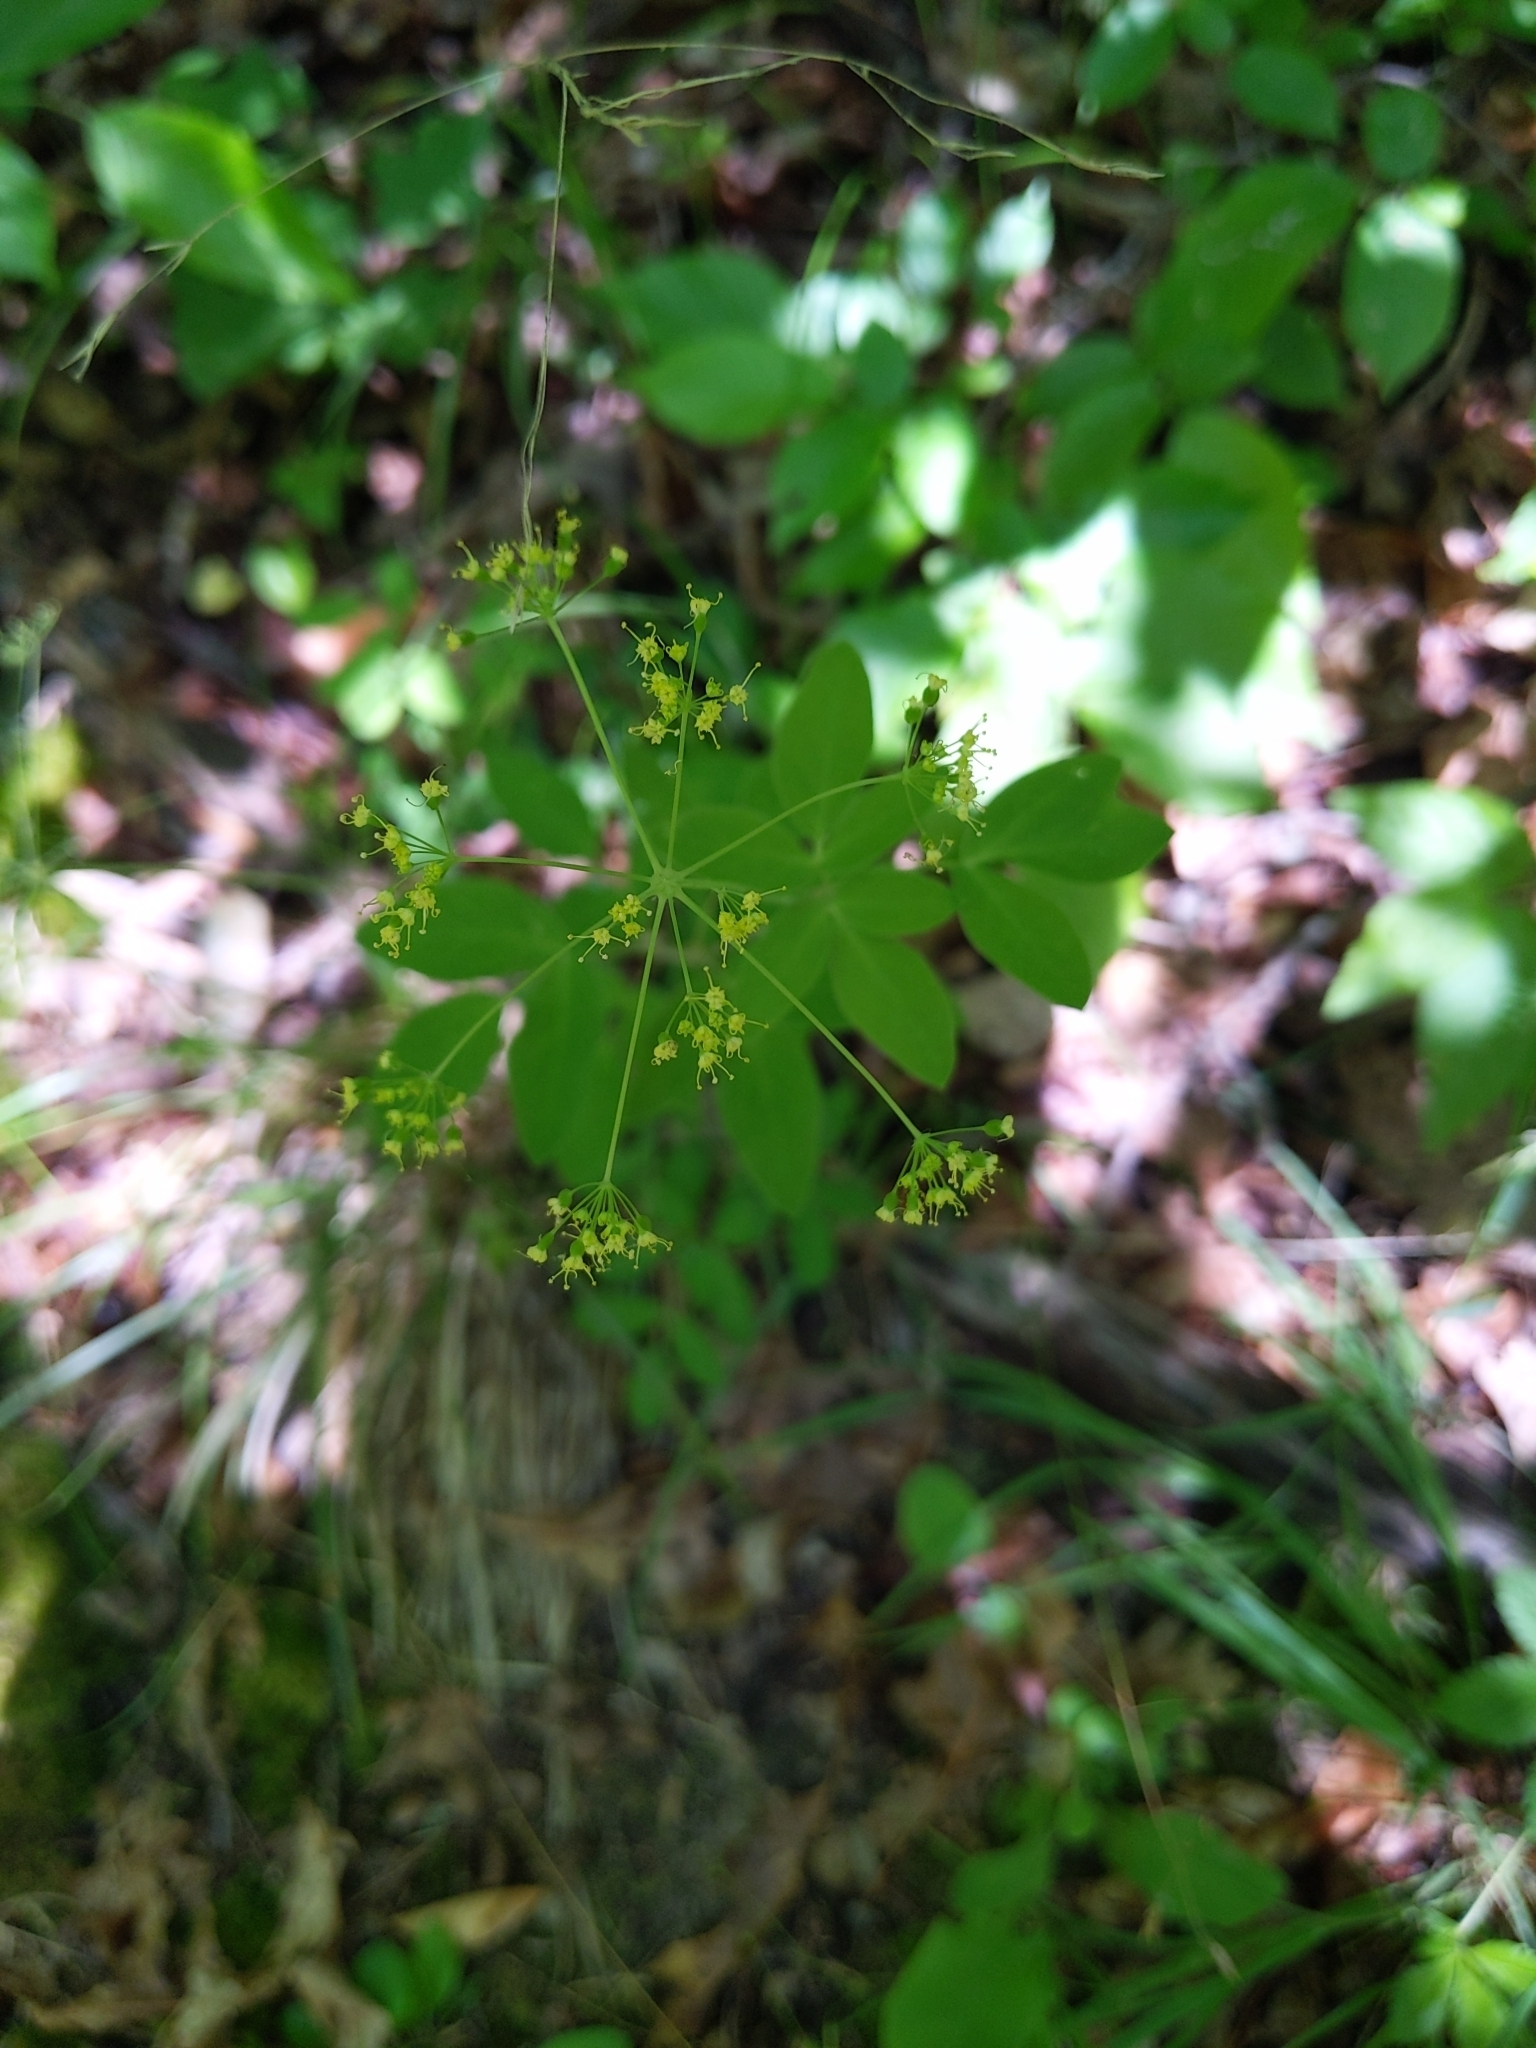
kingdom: Plantae
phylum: Tracheophyta
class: Magnoliopsida
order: Apiales
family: Apiaceae
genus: Taenidia
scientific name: Taenidia integerrima
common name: Golden alexander
